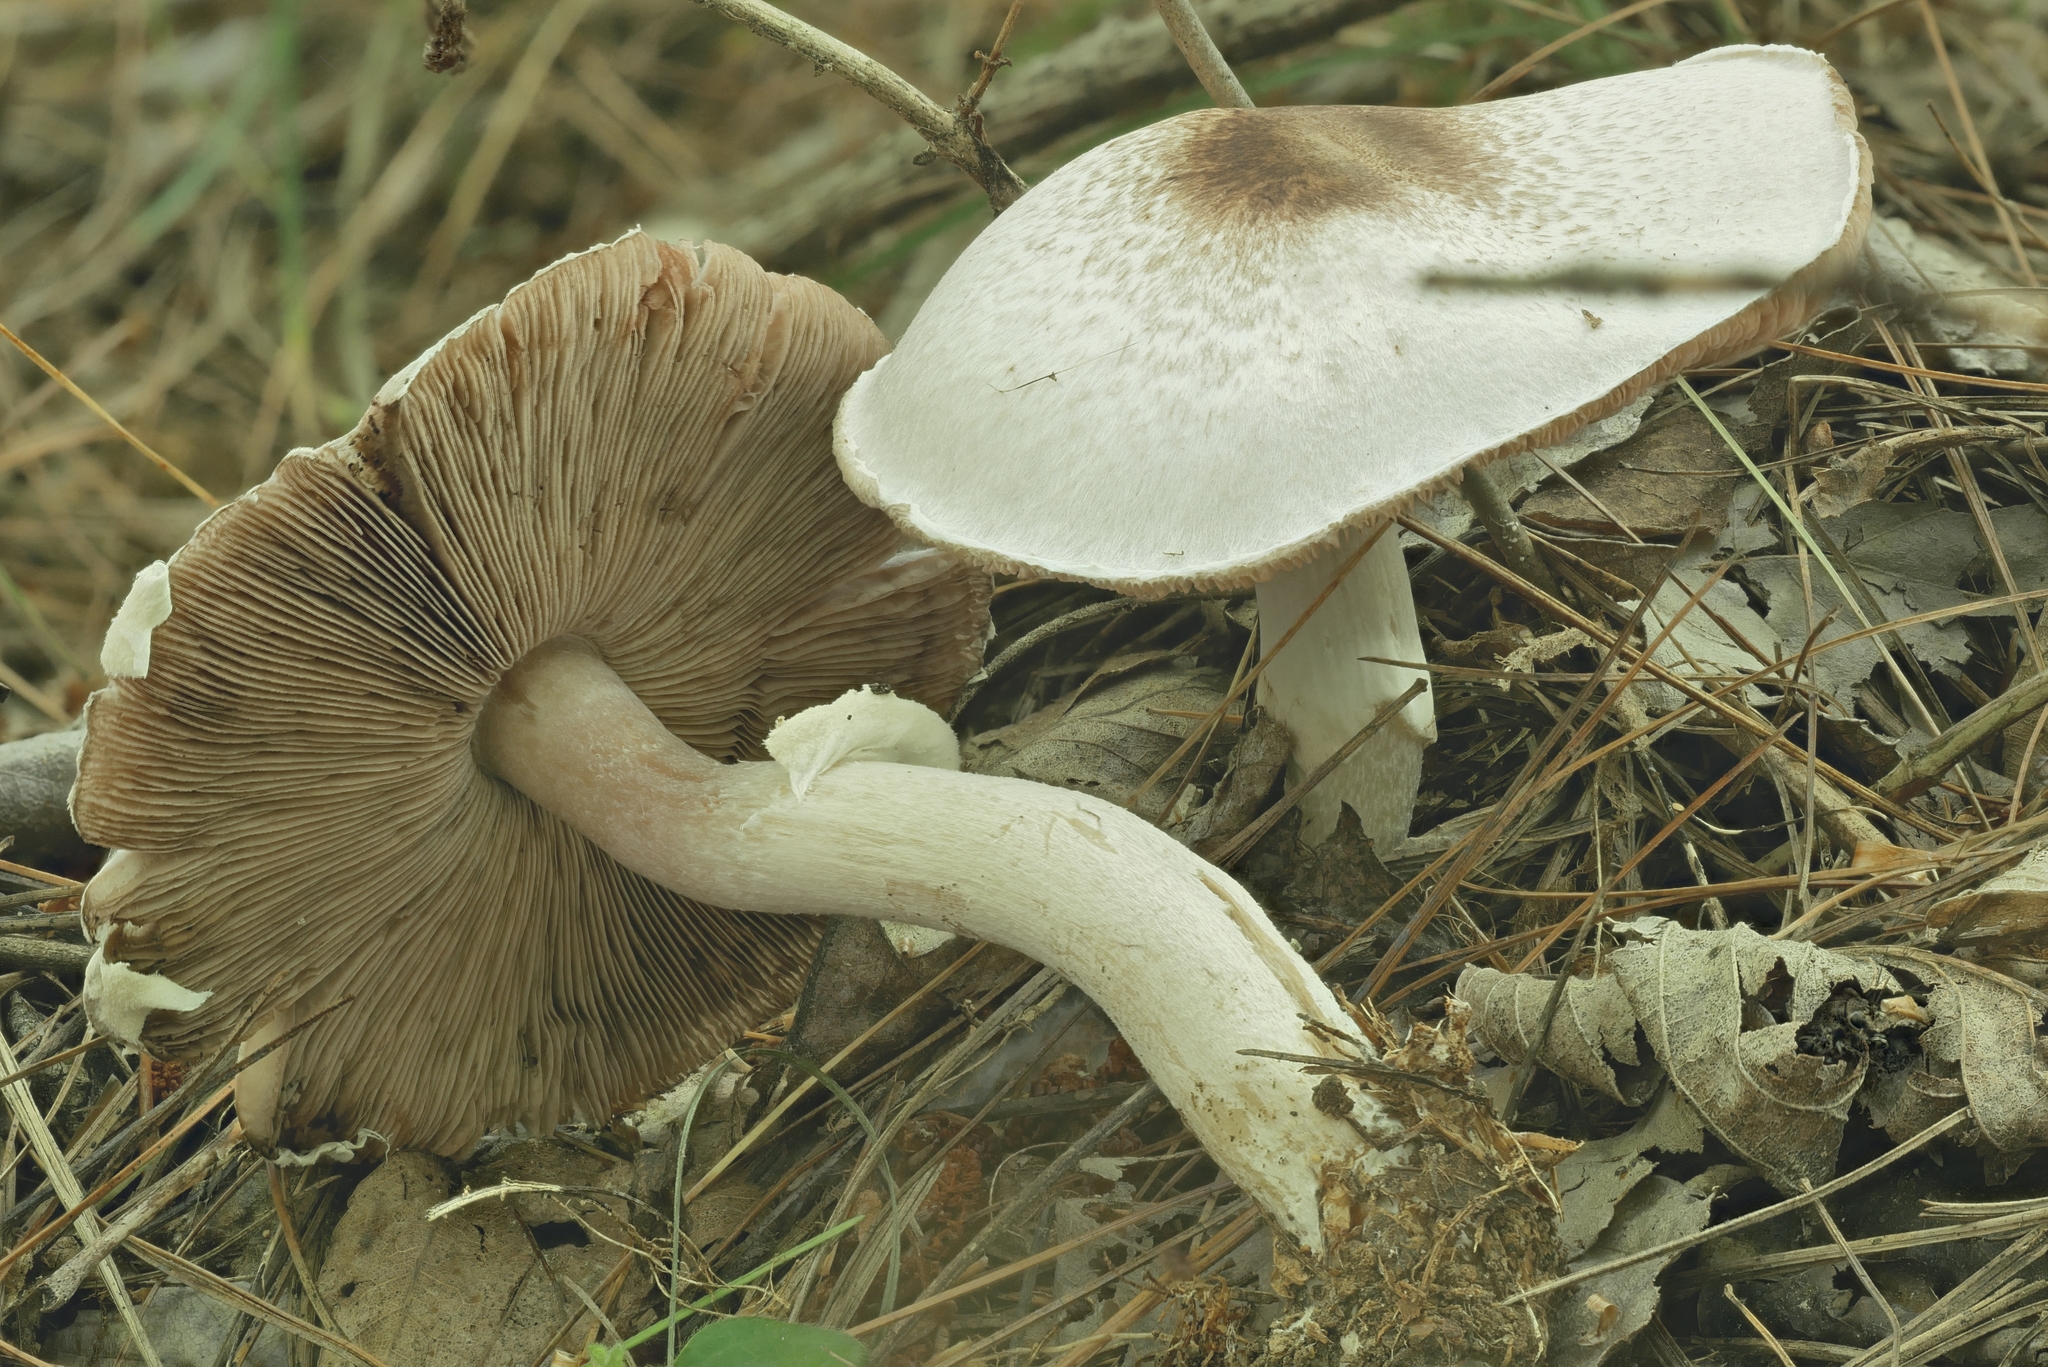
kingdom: Fungi
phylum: Basidiomycota
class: Agaricomycetes
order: Agaricales
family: Agaricaceae
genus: Agaricus
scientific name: Agaricus vinosobrunneofumidus
